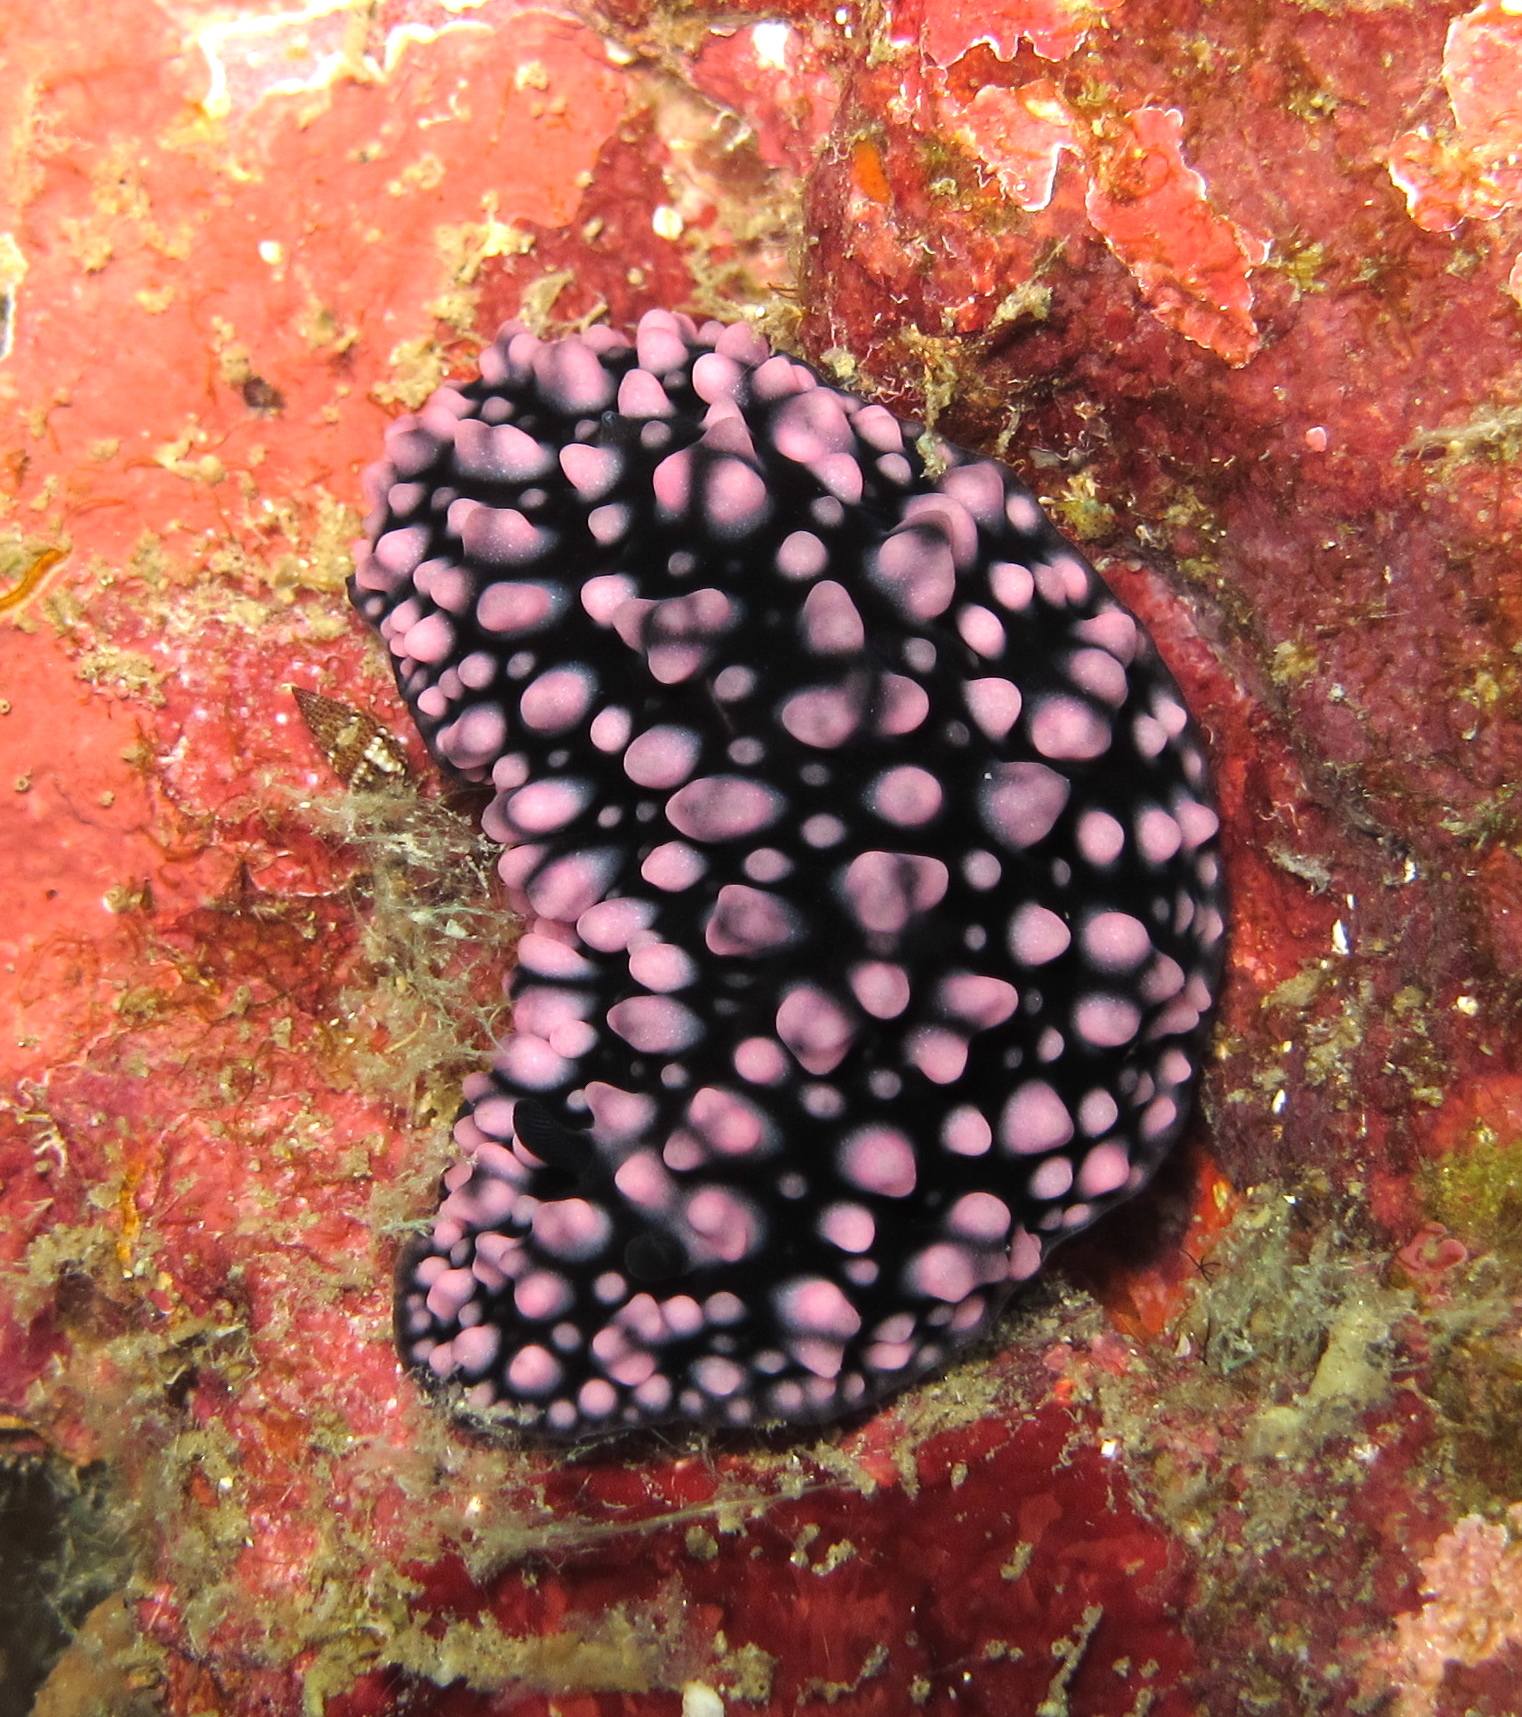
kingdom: Animalia
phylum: Mollusca
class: Gastropoda
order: Nudibranchia
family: Phyllidiidae
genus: Phyllidiella
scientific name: Phyllidiella nigra
